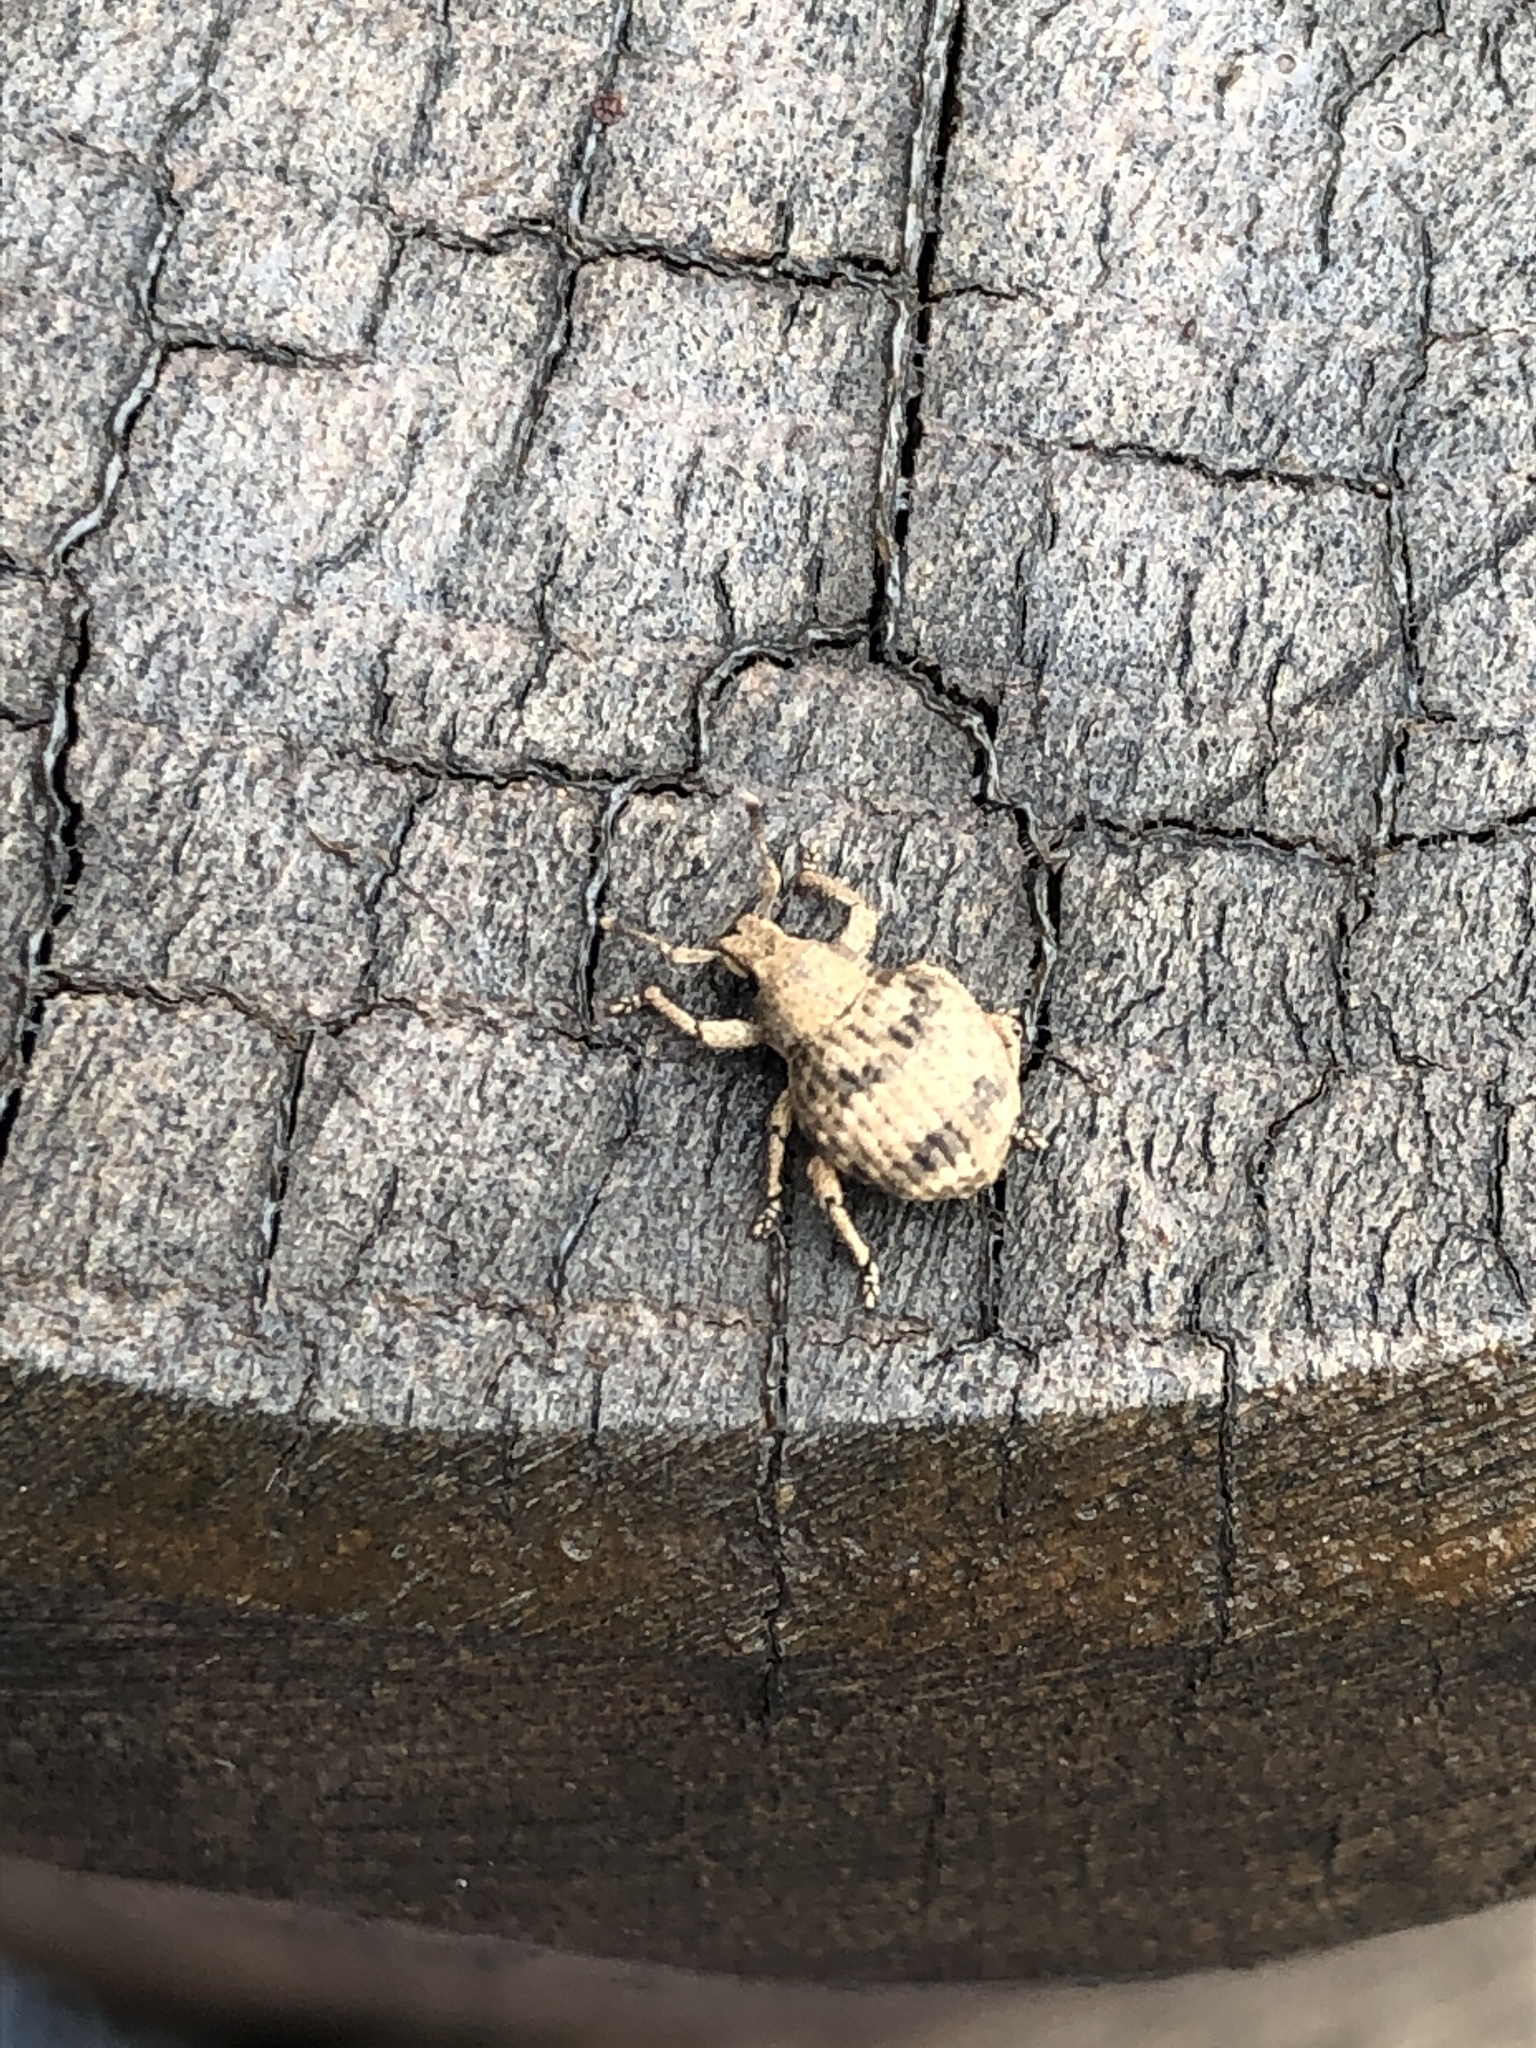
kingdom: Animalia
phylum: Arthropoda
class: Insecta
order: Coleoptera
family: Curculionidae
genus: Pseudocneorhinus
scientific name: Pseudocneorhinus bifasciatus
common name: Two-banded japanese weevil
